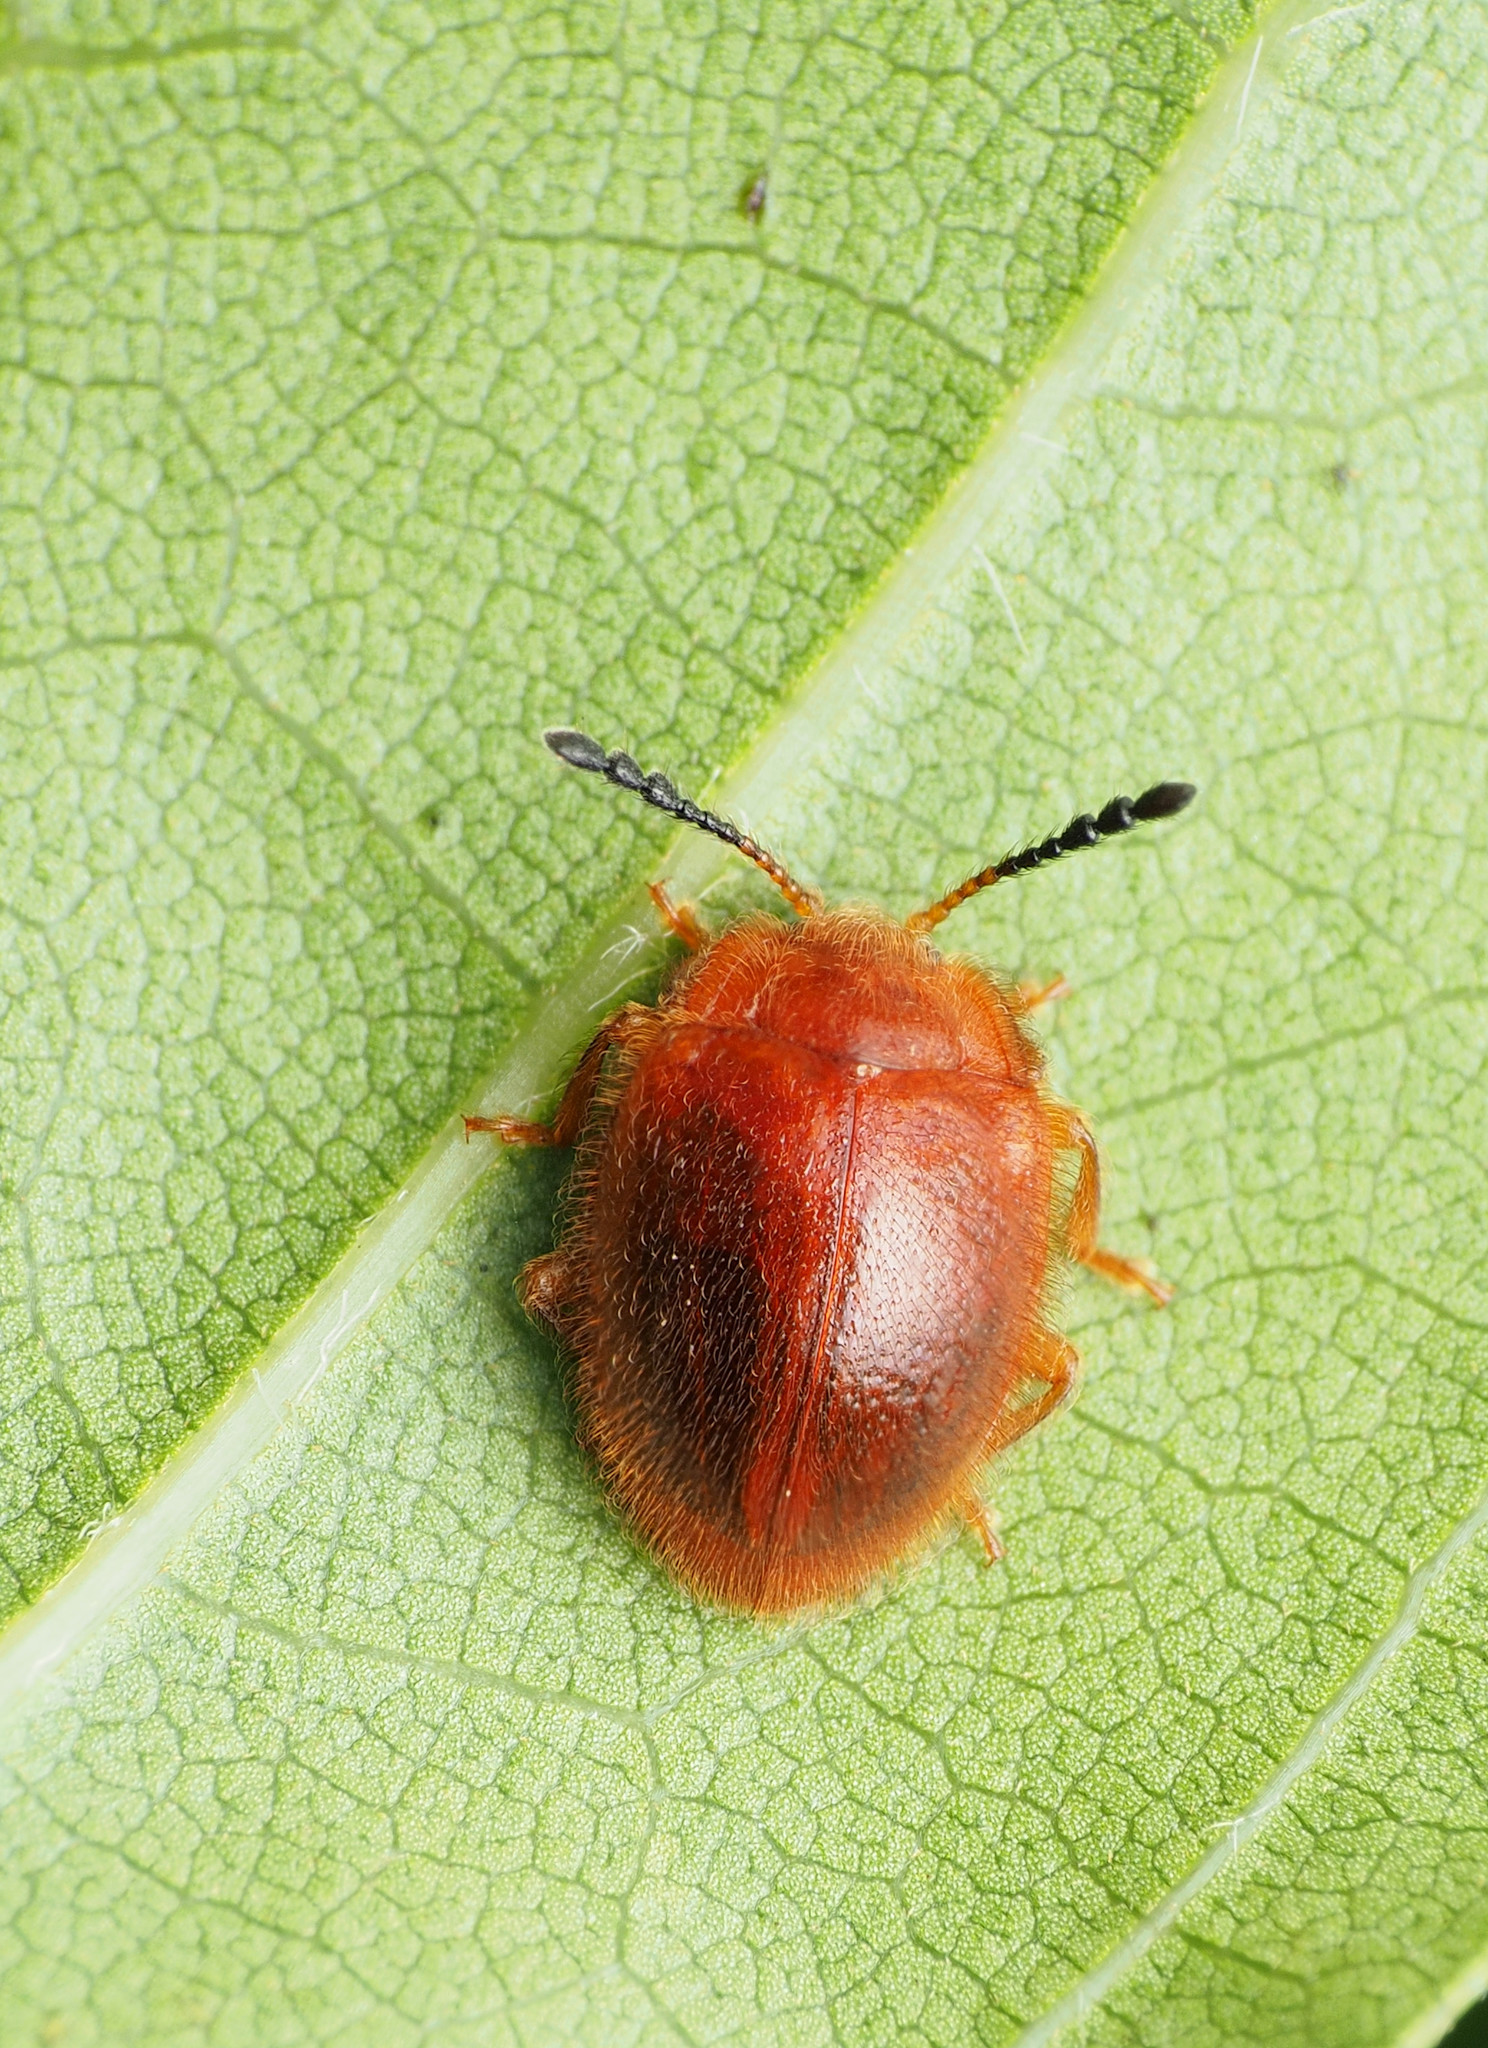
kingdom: Animalia
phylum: Arthropoda
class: Insecta
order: Coleoptera
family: Endomychidae
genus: Stenotarsus
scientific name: Stenotarsus blatchleyi
